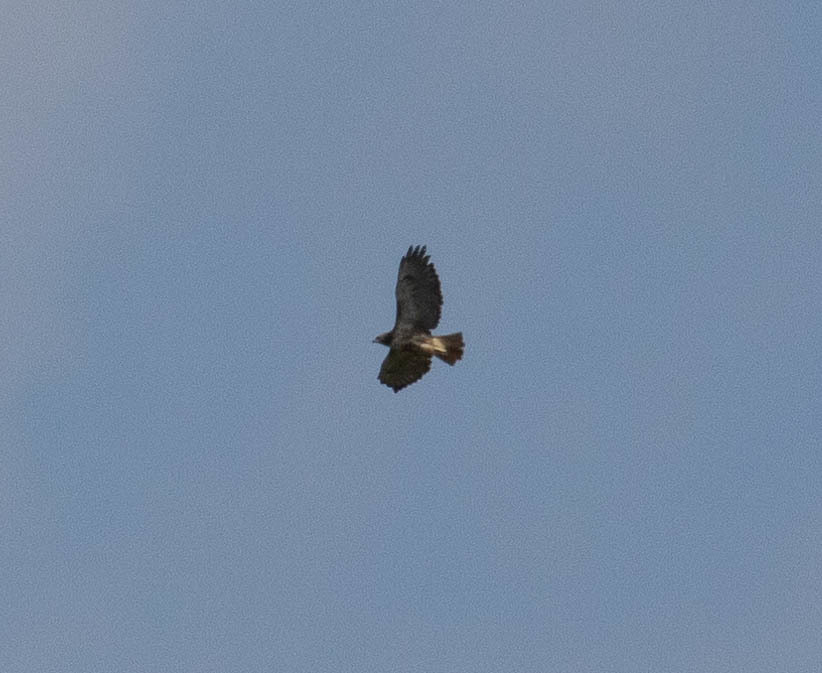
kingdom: Animalia
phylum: Chordata
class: Aves
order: Accipitriformes
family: Accipitridae
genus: Buteo
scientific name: Buteo jamaicensis
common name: Red-tailed hawk
